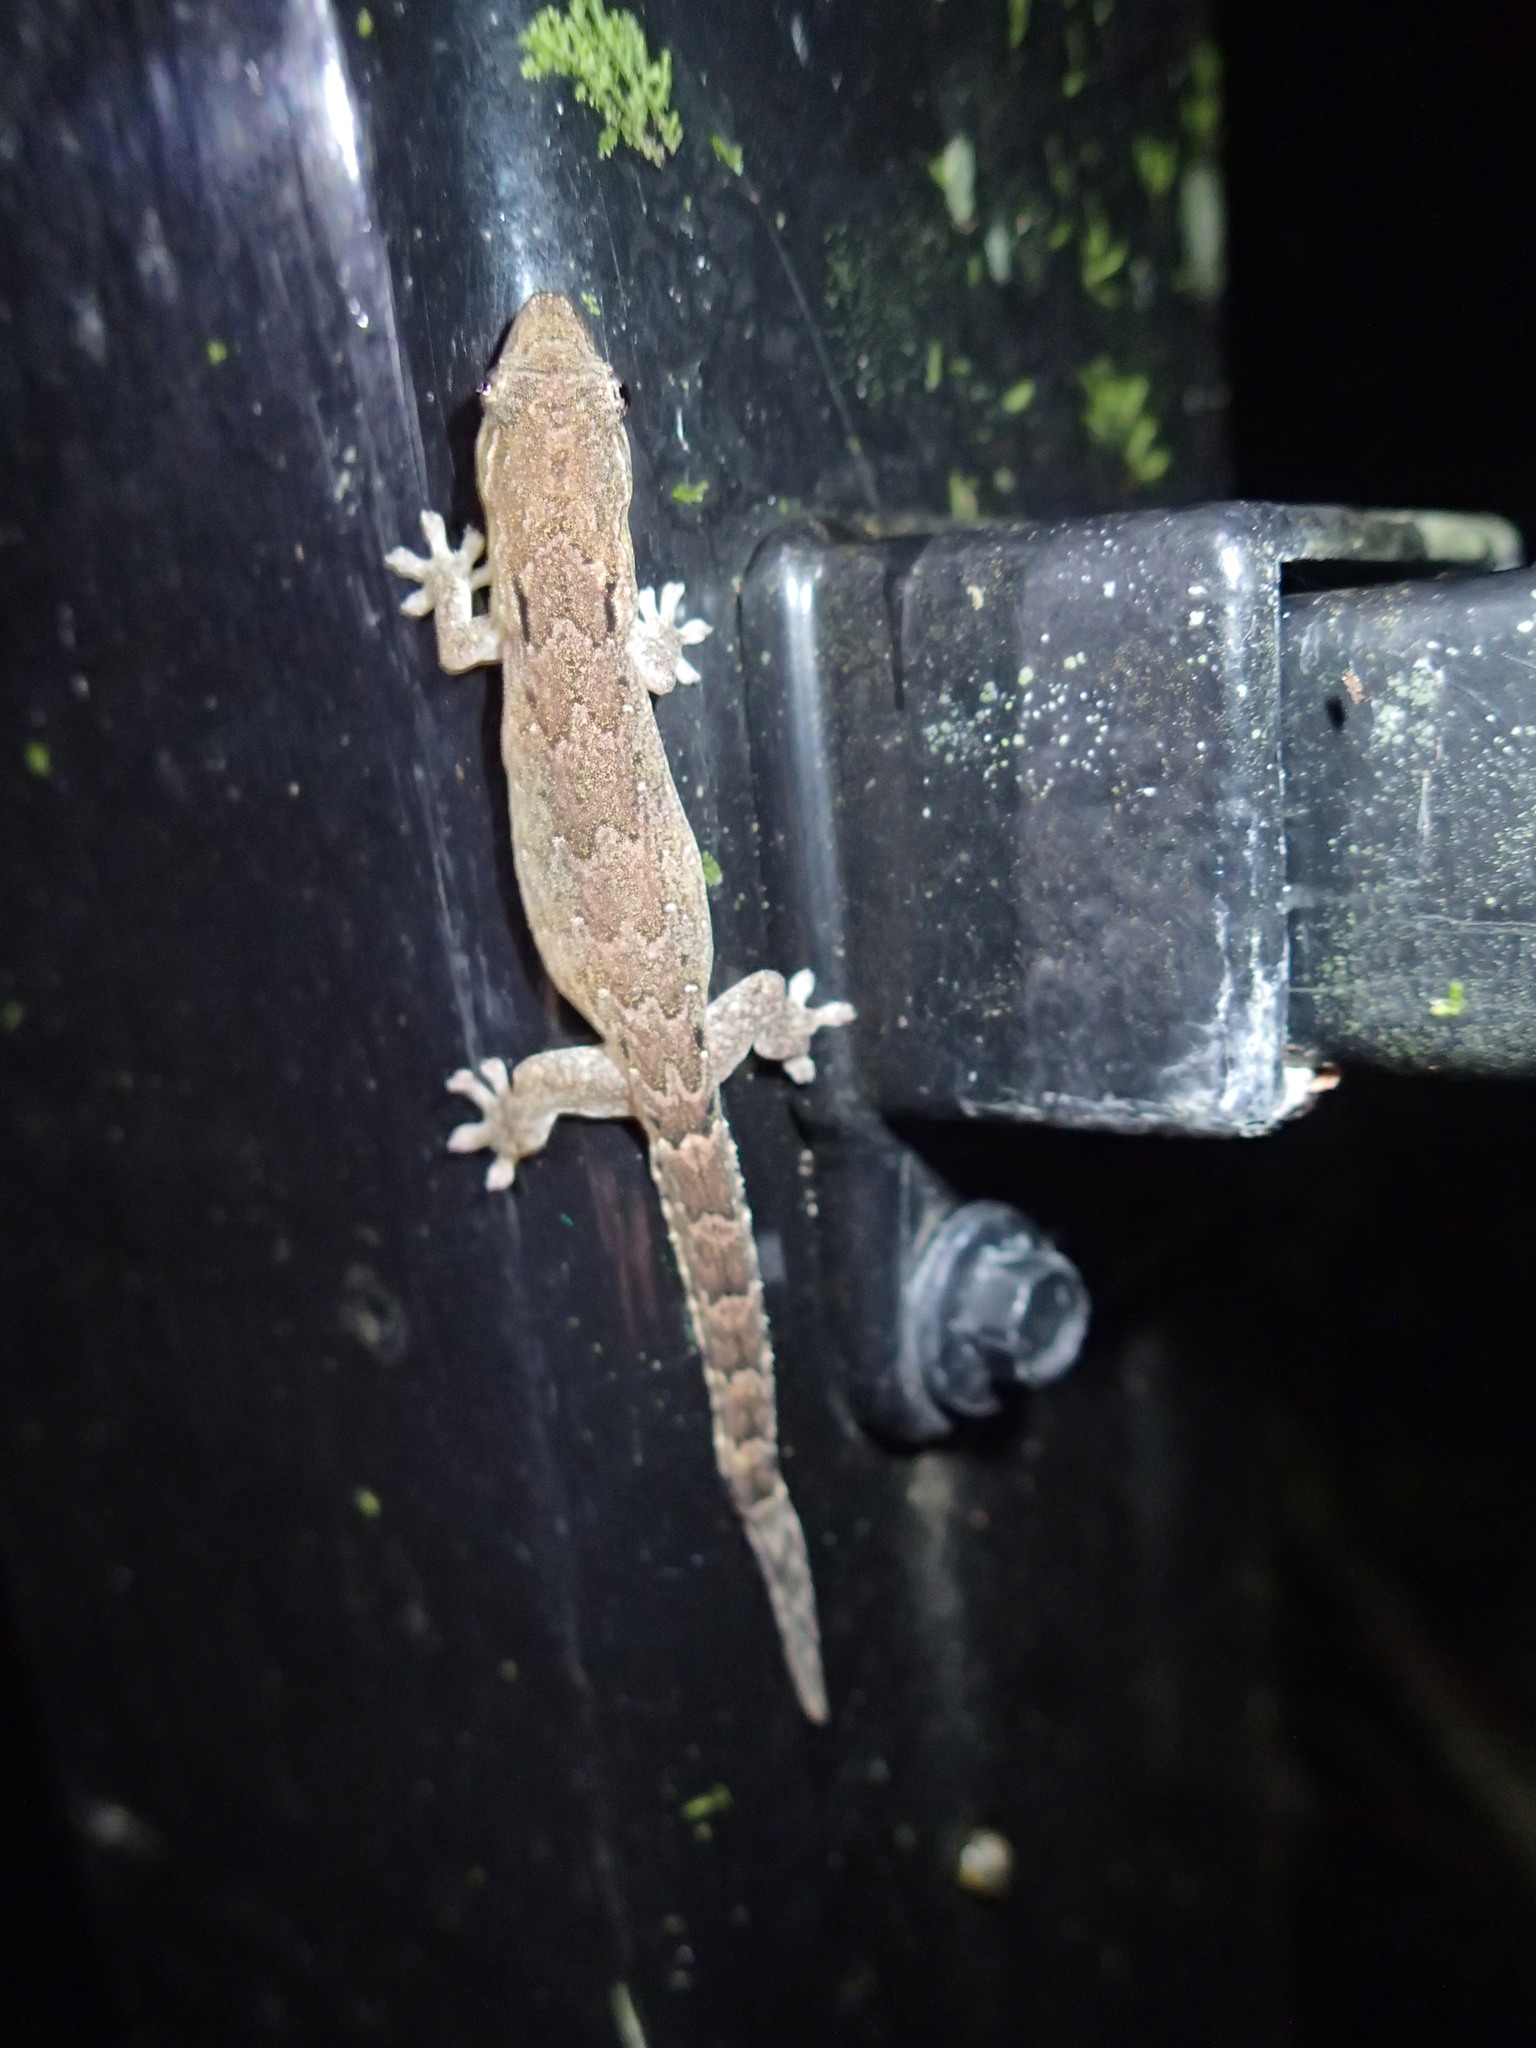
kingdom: Animalia
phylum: Chordata
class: Squamata
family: Gekkonidae
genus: Lepidodactylus
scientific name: Lepidodactylus lugubris
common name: Mourning gecko
